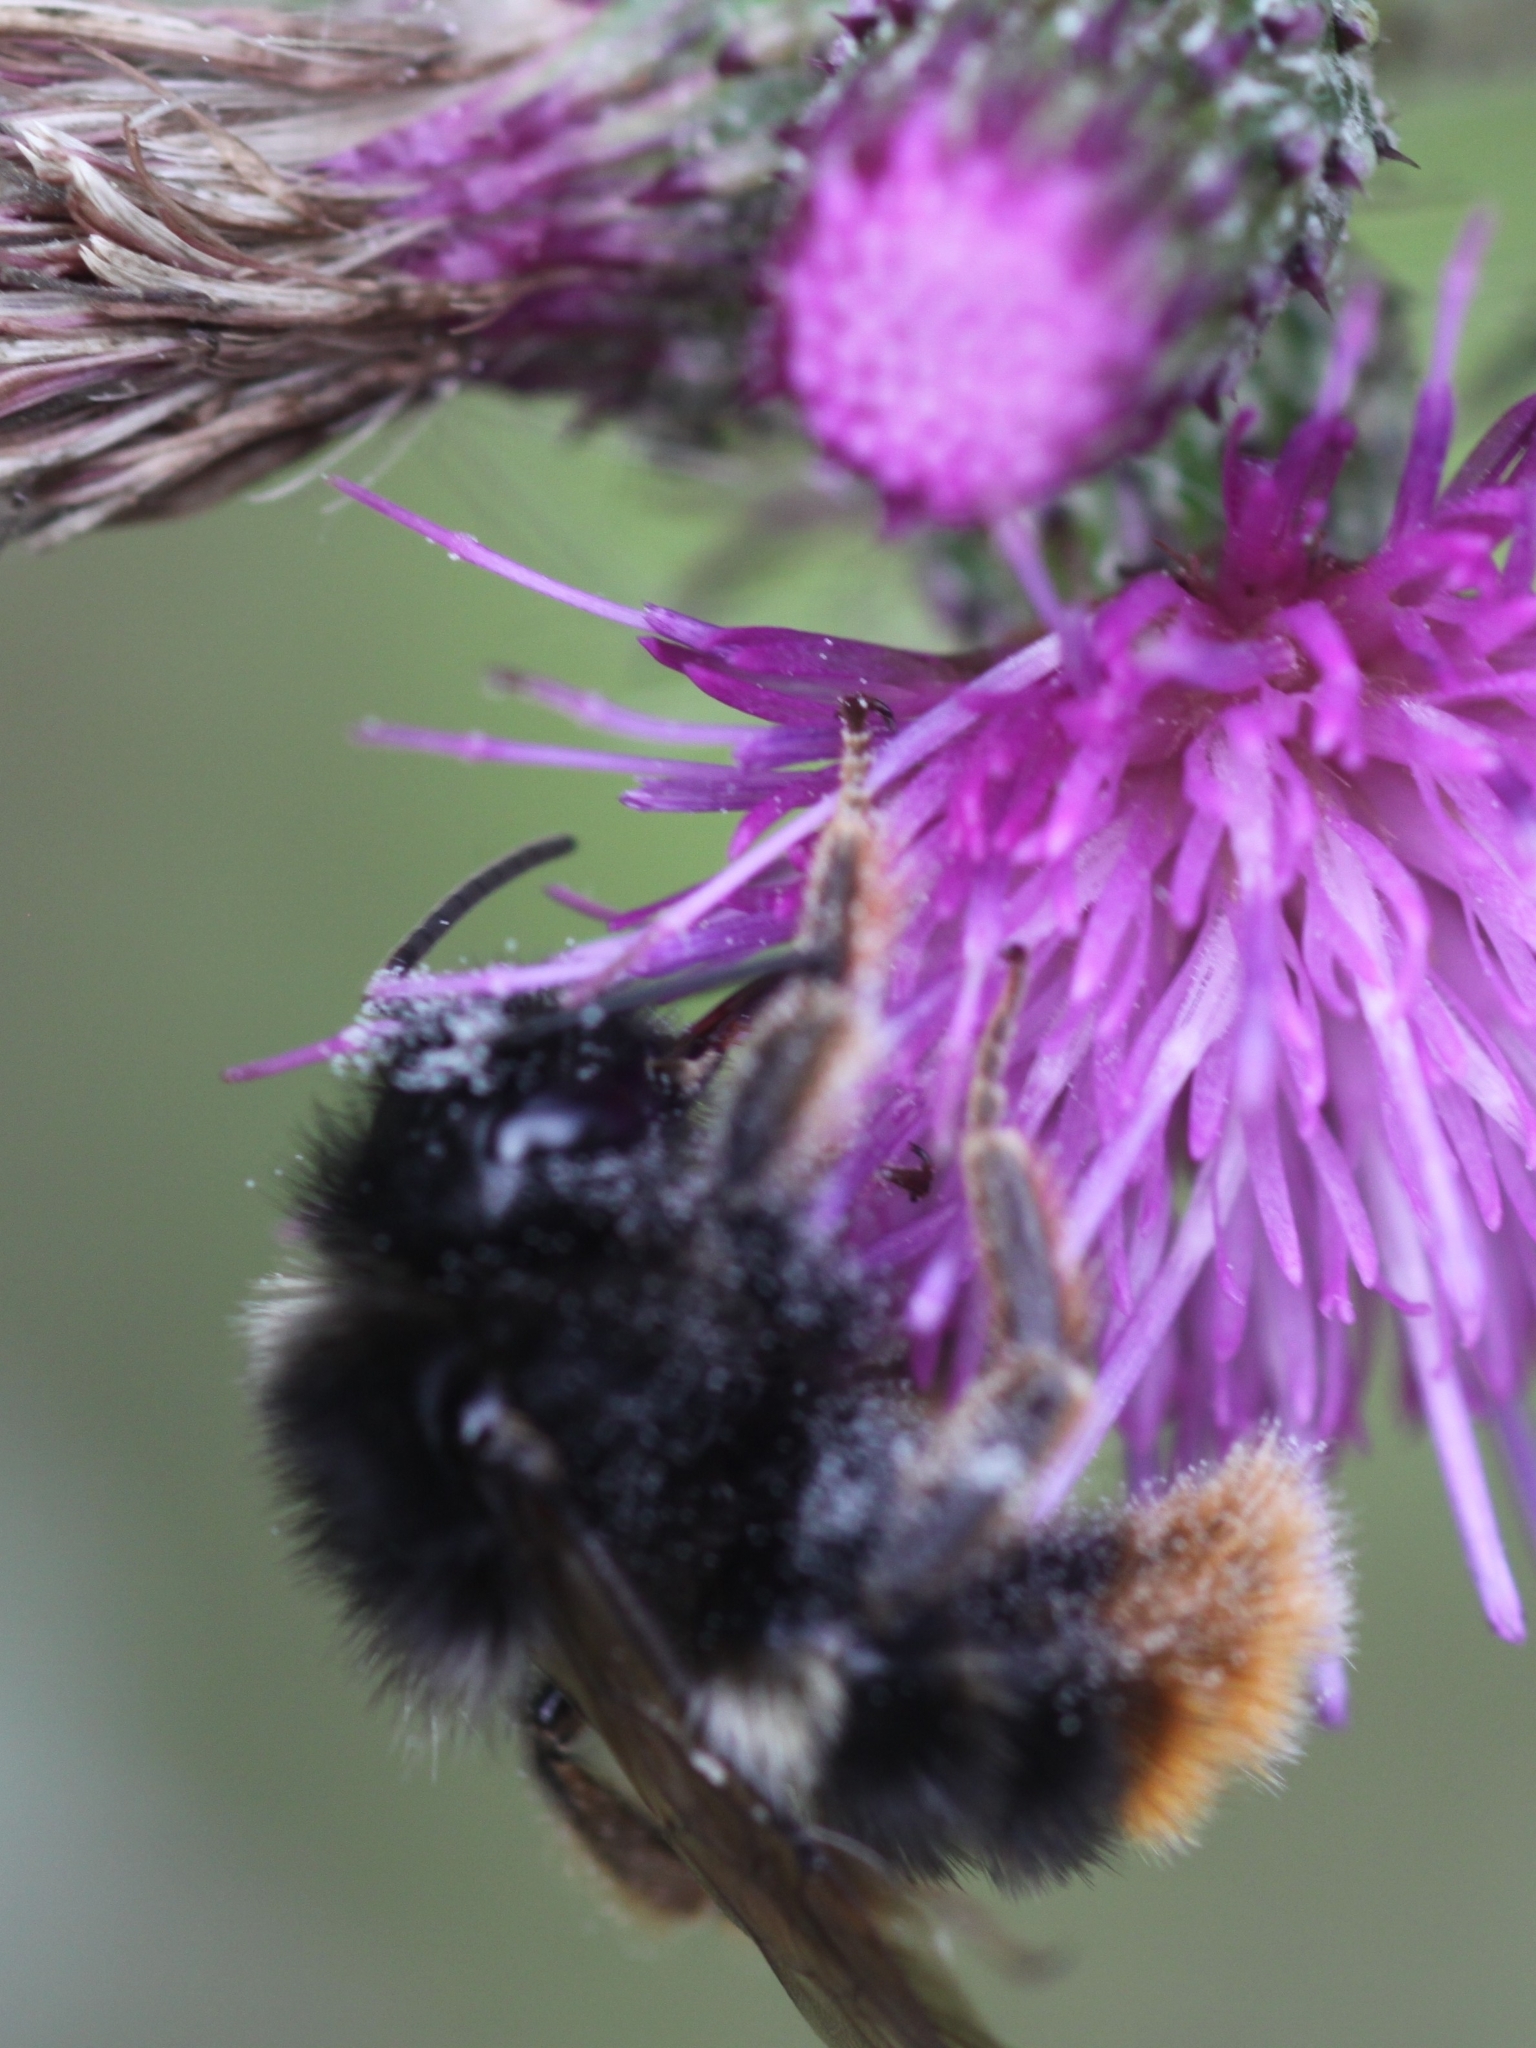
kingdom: Animalia
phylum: Arthropoda
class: Insecta
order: Hymenoptera
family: Apidae
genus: Bombus
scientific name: Bombus rupestris
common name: Hill cuckoo-bee
